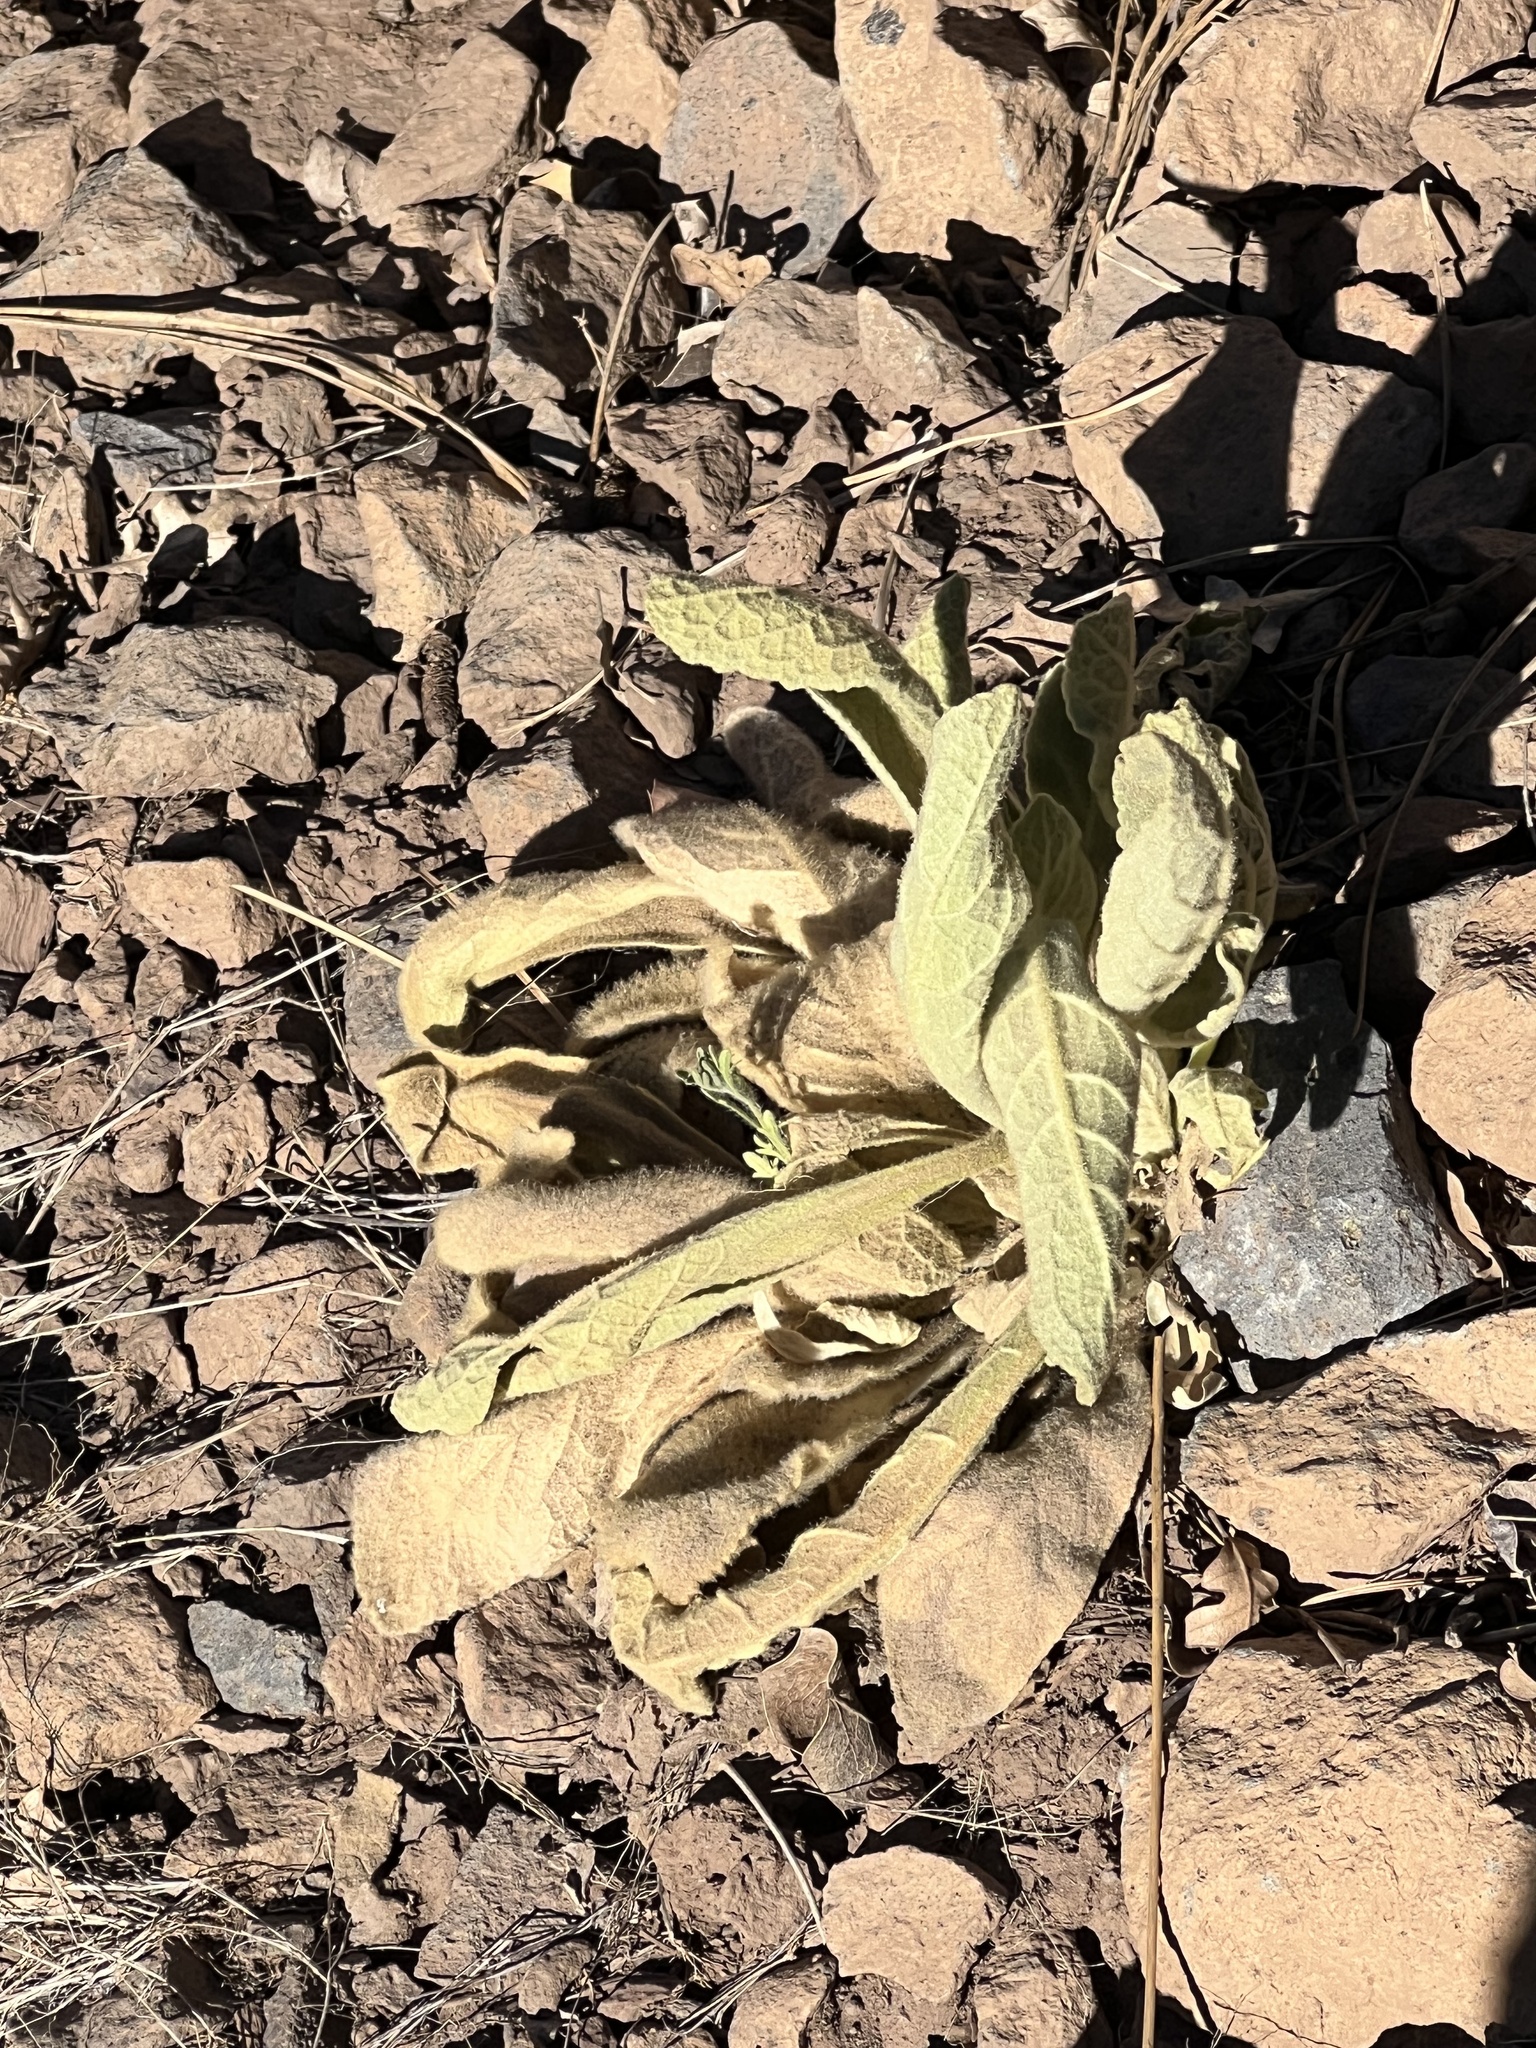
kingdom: Plantae
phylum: Tracheophyta
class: Magnoliopsida
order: Lamiales
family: Scrophulariaceae
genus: Verbascum
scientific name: Verbascum thapsus
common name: Common mullein
